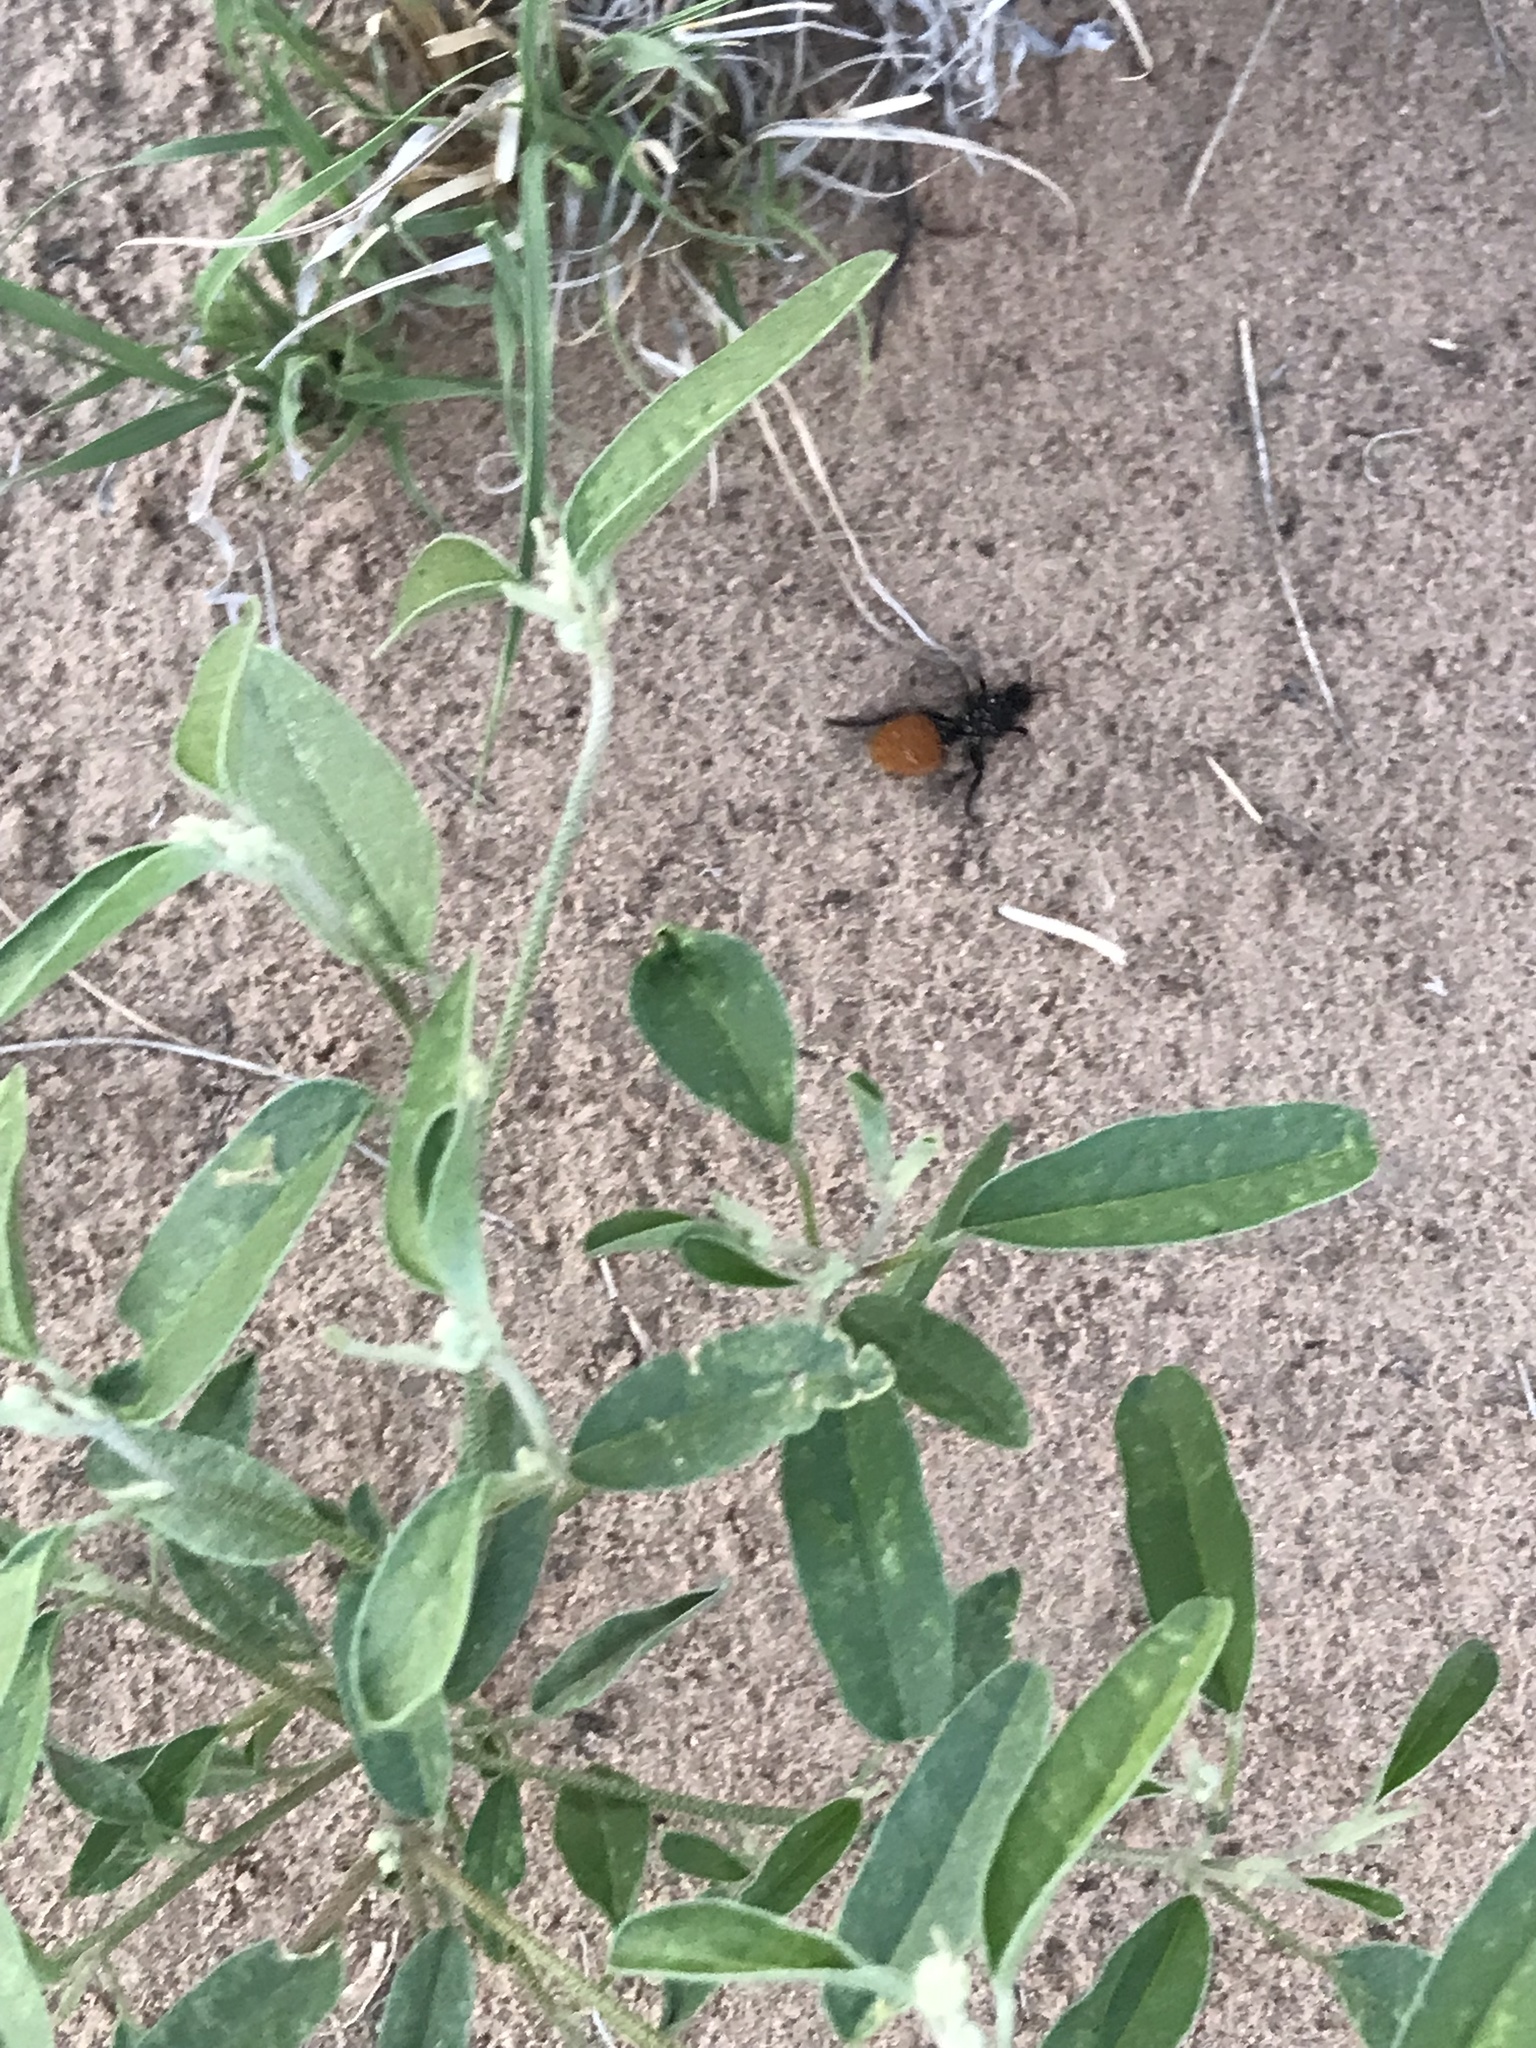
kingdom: Animalia
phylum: Arthropoda
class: Insecta
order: Hymenoptera
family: Mutillidae
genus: Dasymutilla
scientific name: Dasymutilla
